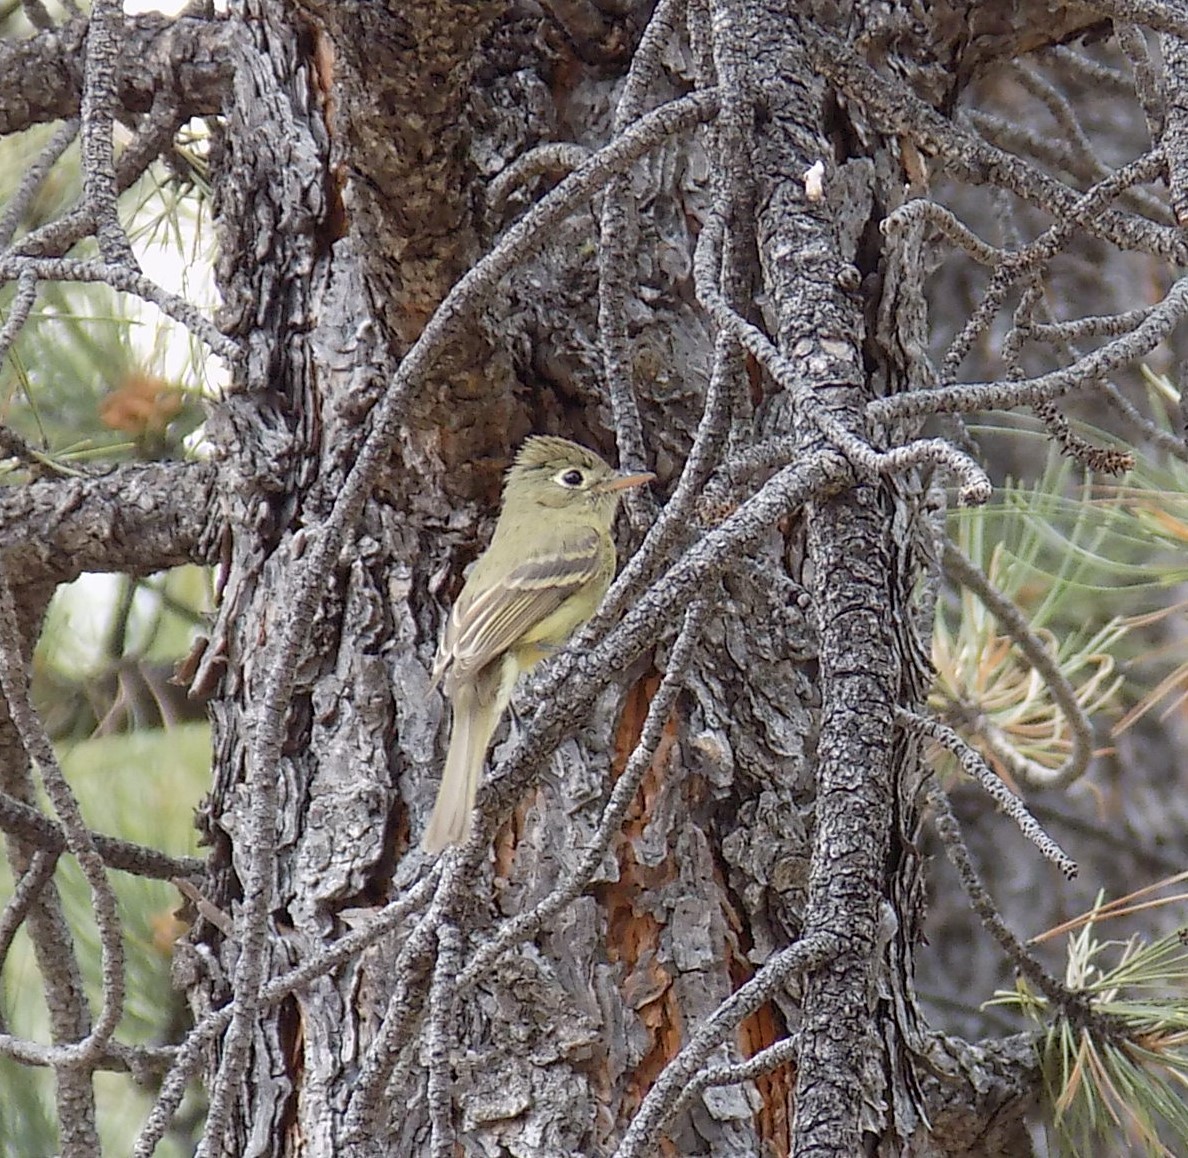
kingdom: Animalia
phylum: Chordata
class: Aves
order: Passeriformes
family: Tyrannidae
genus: Empidonax
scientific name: Empidonax difficilis
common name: Pacific-slope flycatcher
